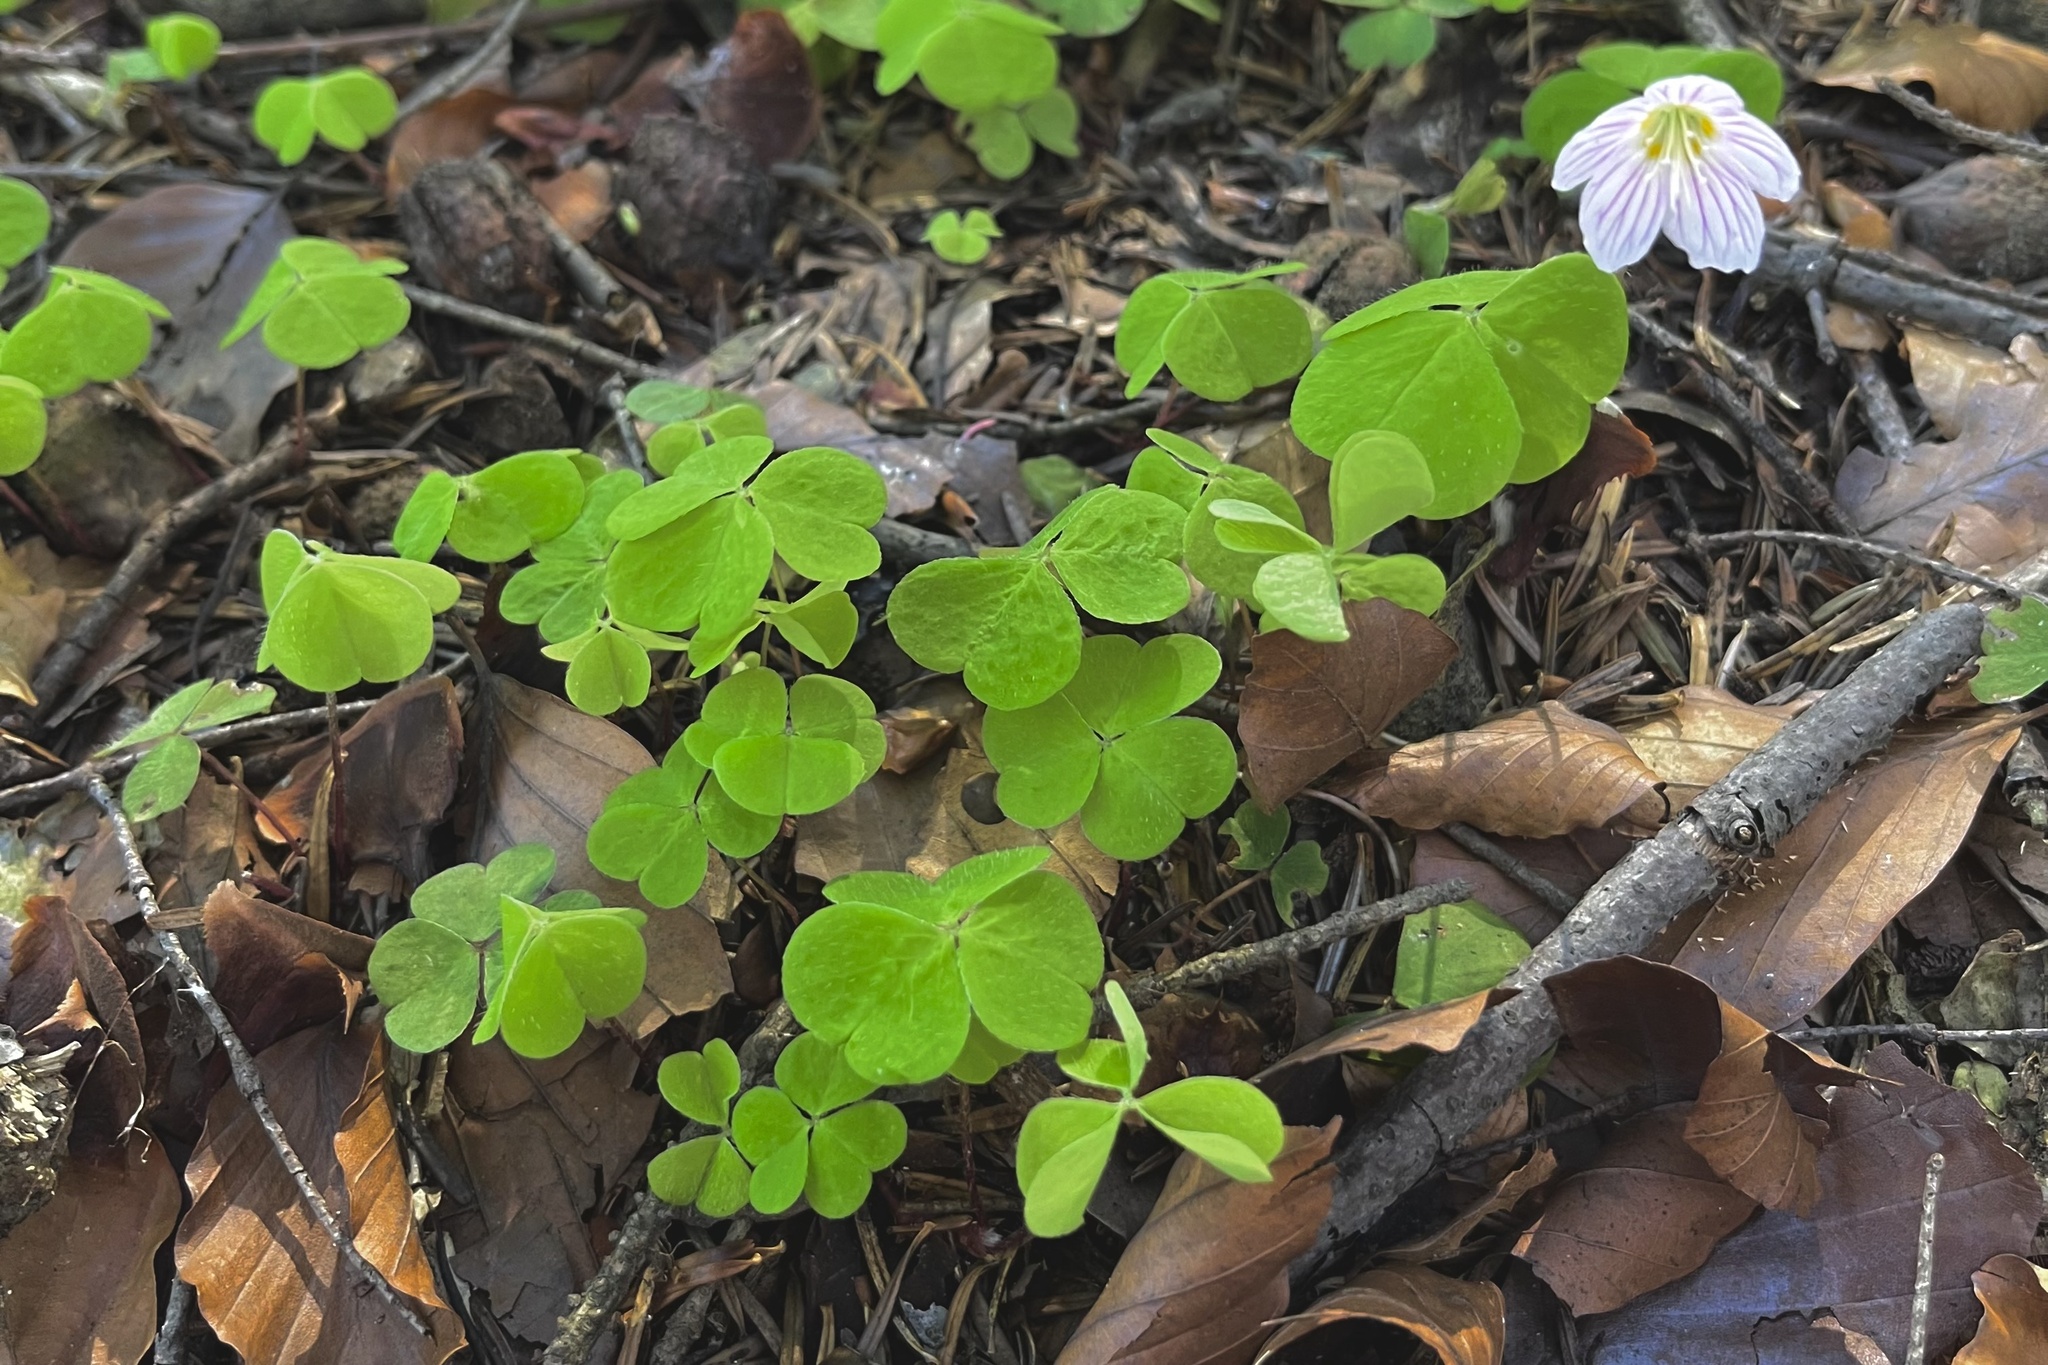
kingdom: Plantae
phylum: Tracheophyta
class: Magnoliopsida
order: Oxalidales
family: Oxalidaceae
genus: Oxalis
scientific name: Oxalis acetosella
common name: Wood-sorrel
